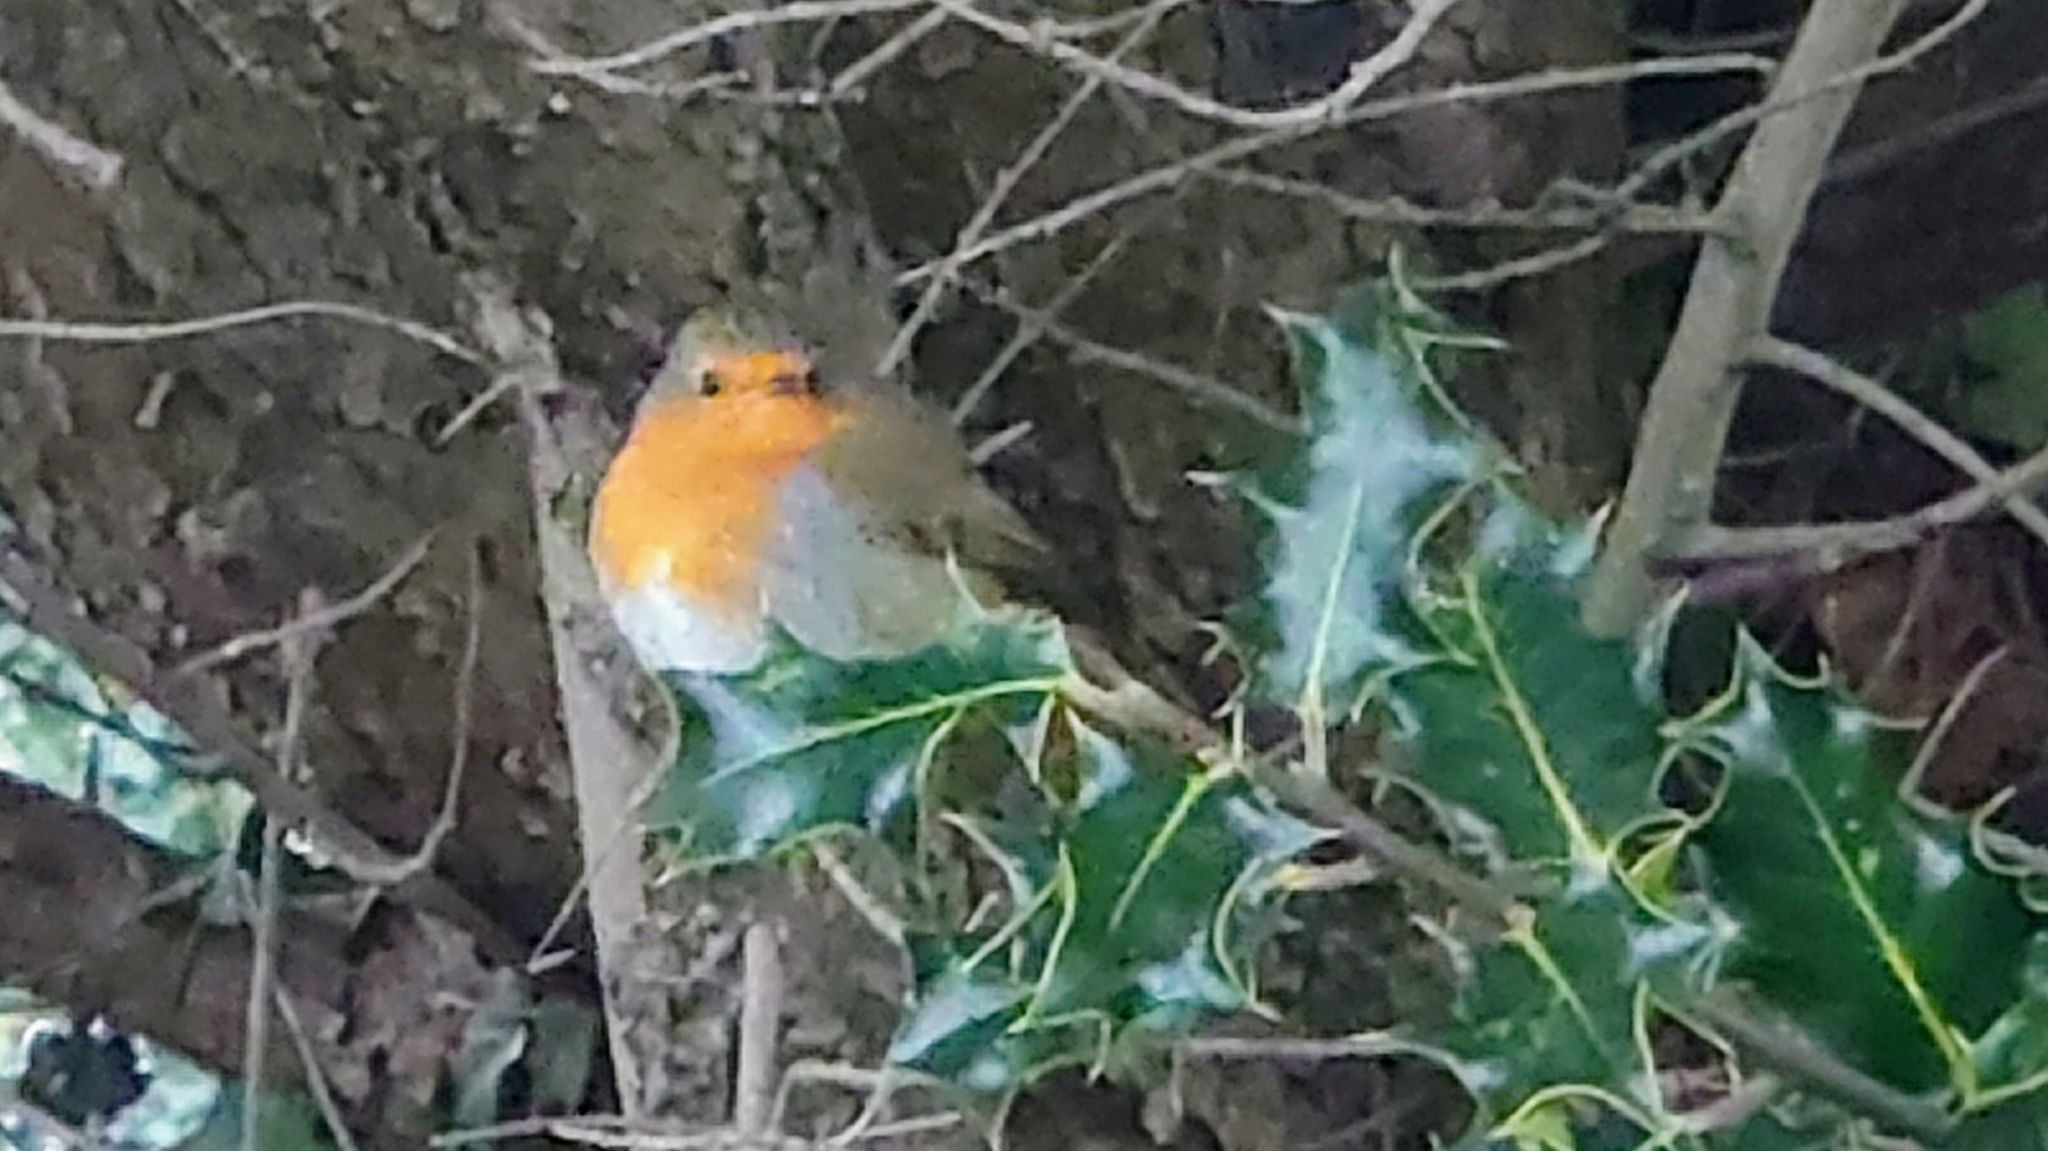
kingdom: Animalia
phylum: Chordata
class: Aves
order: Passeriformes
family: Muscicapidae
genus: Erithacus
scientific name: Erithacus rubecula
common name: European robin
